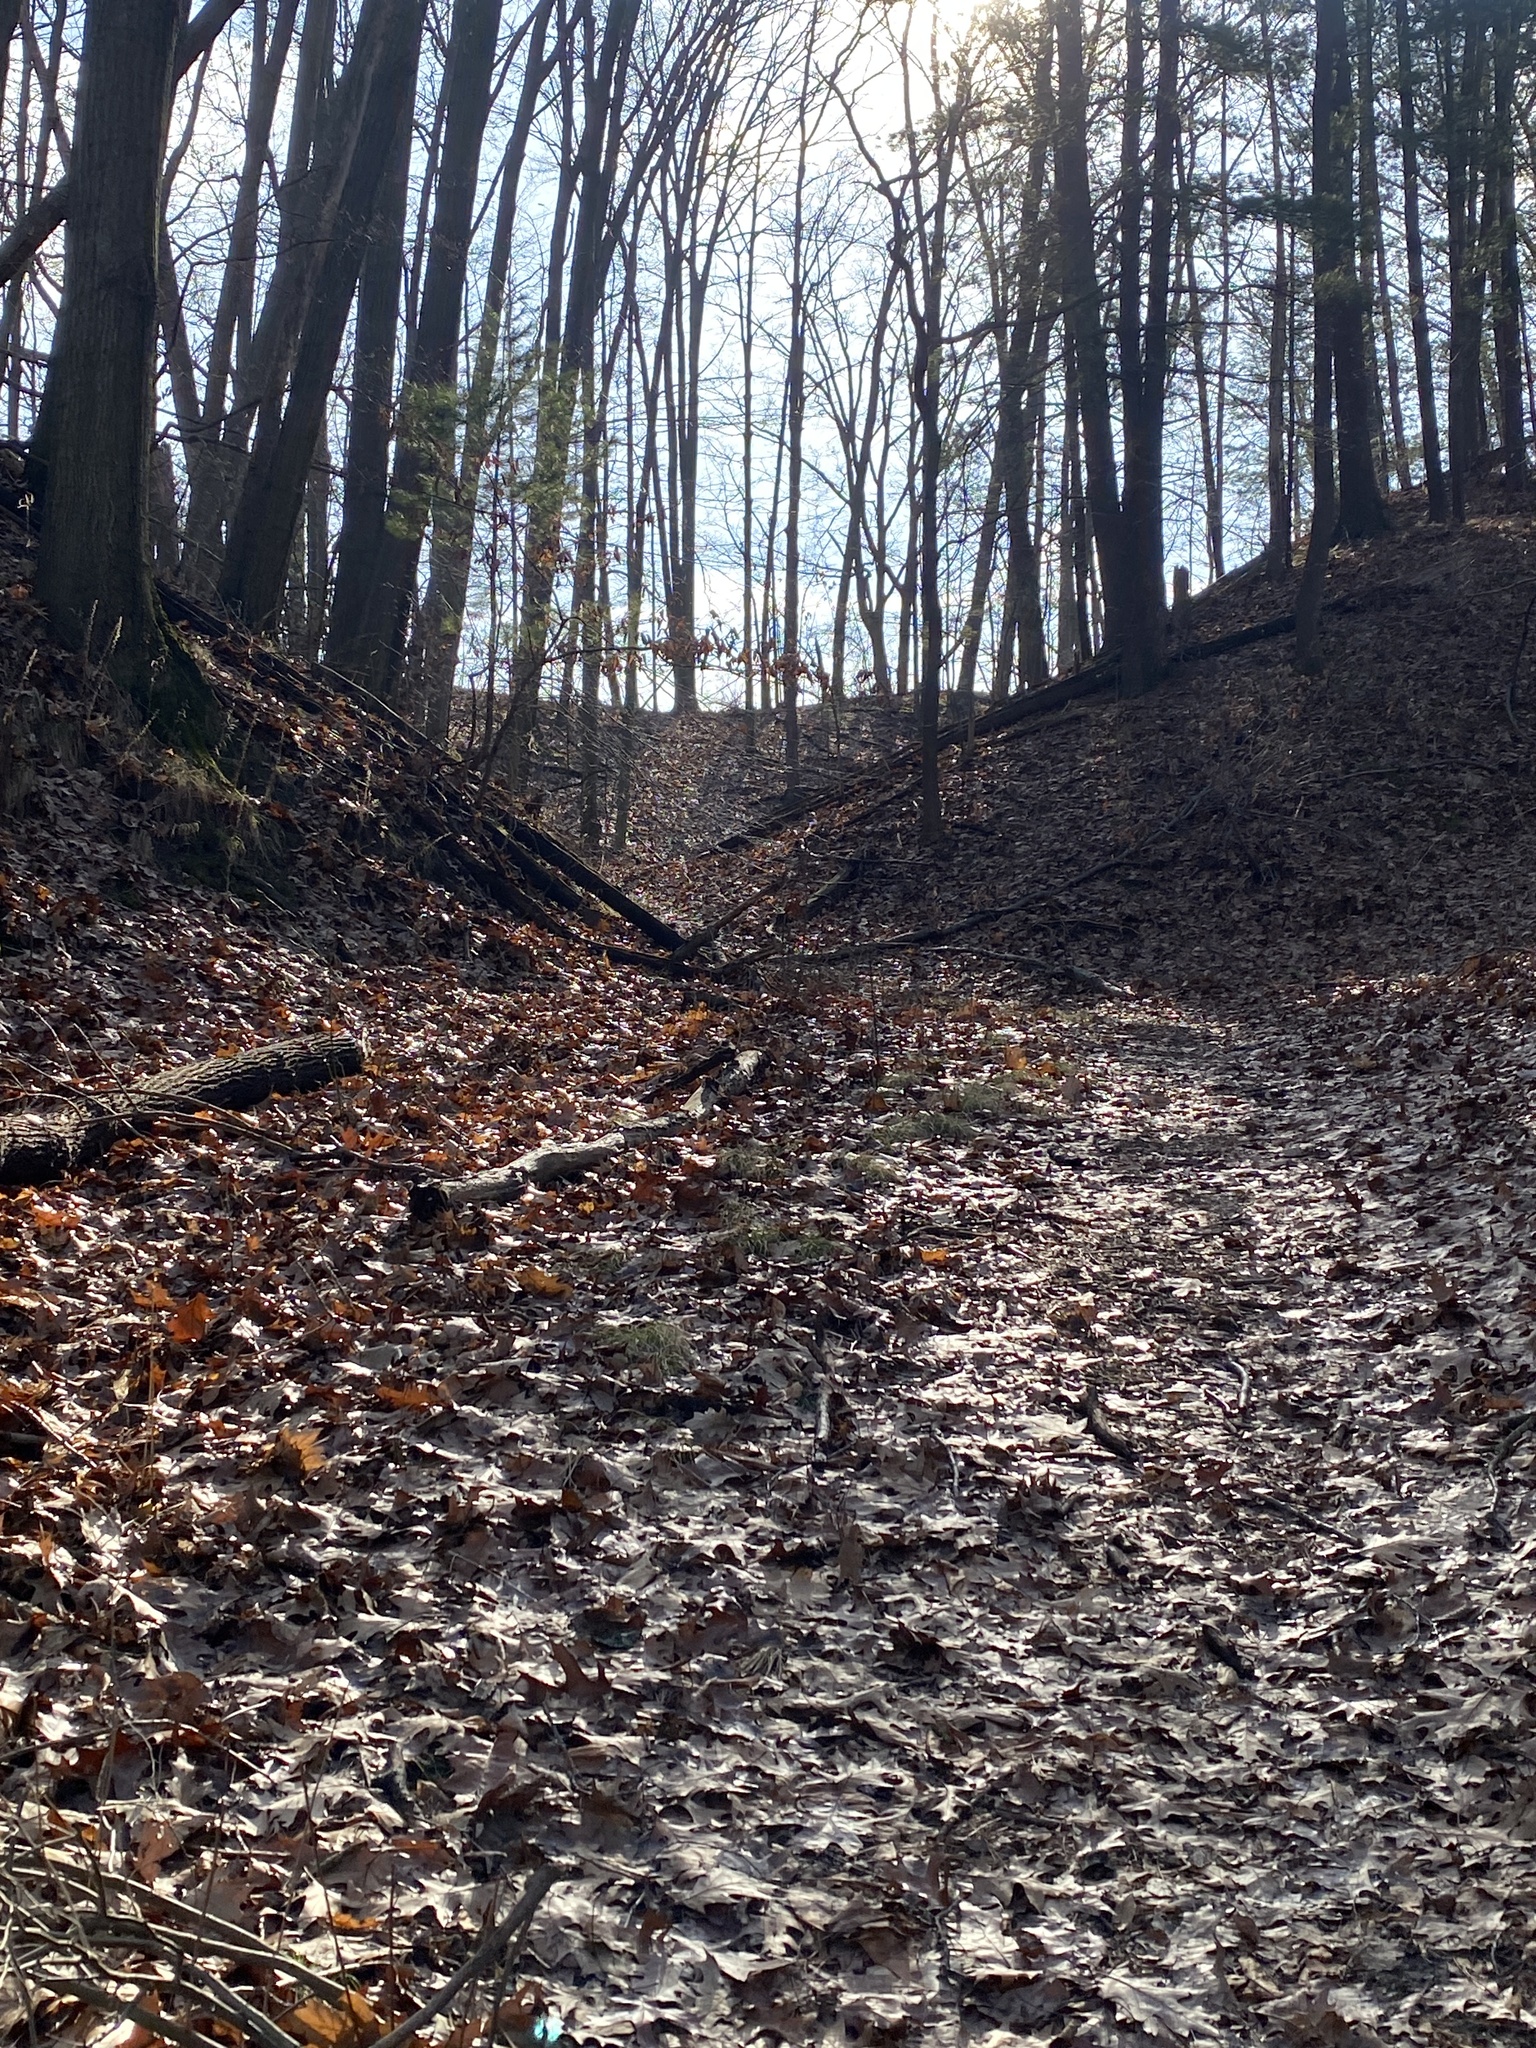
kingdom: Plantae
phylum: Tracheophyta
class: Magnoliopsida
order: Dipsacales
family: Caprifoliaceae
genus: Lonicera
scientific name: Lonicera japonica
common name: Japanese honeysuckle
